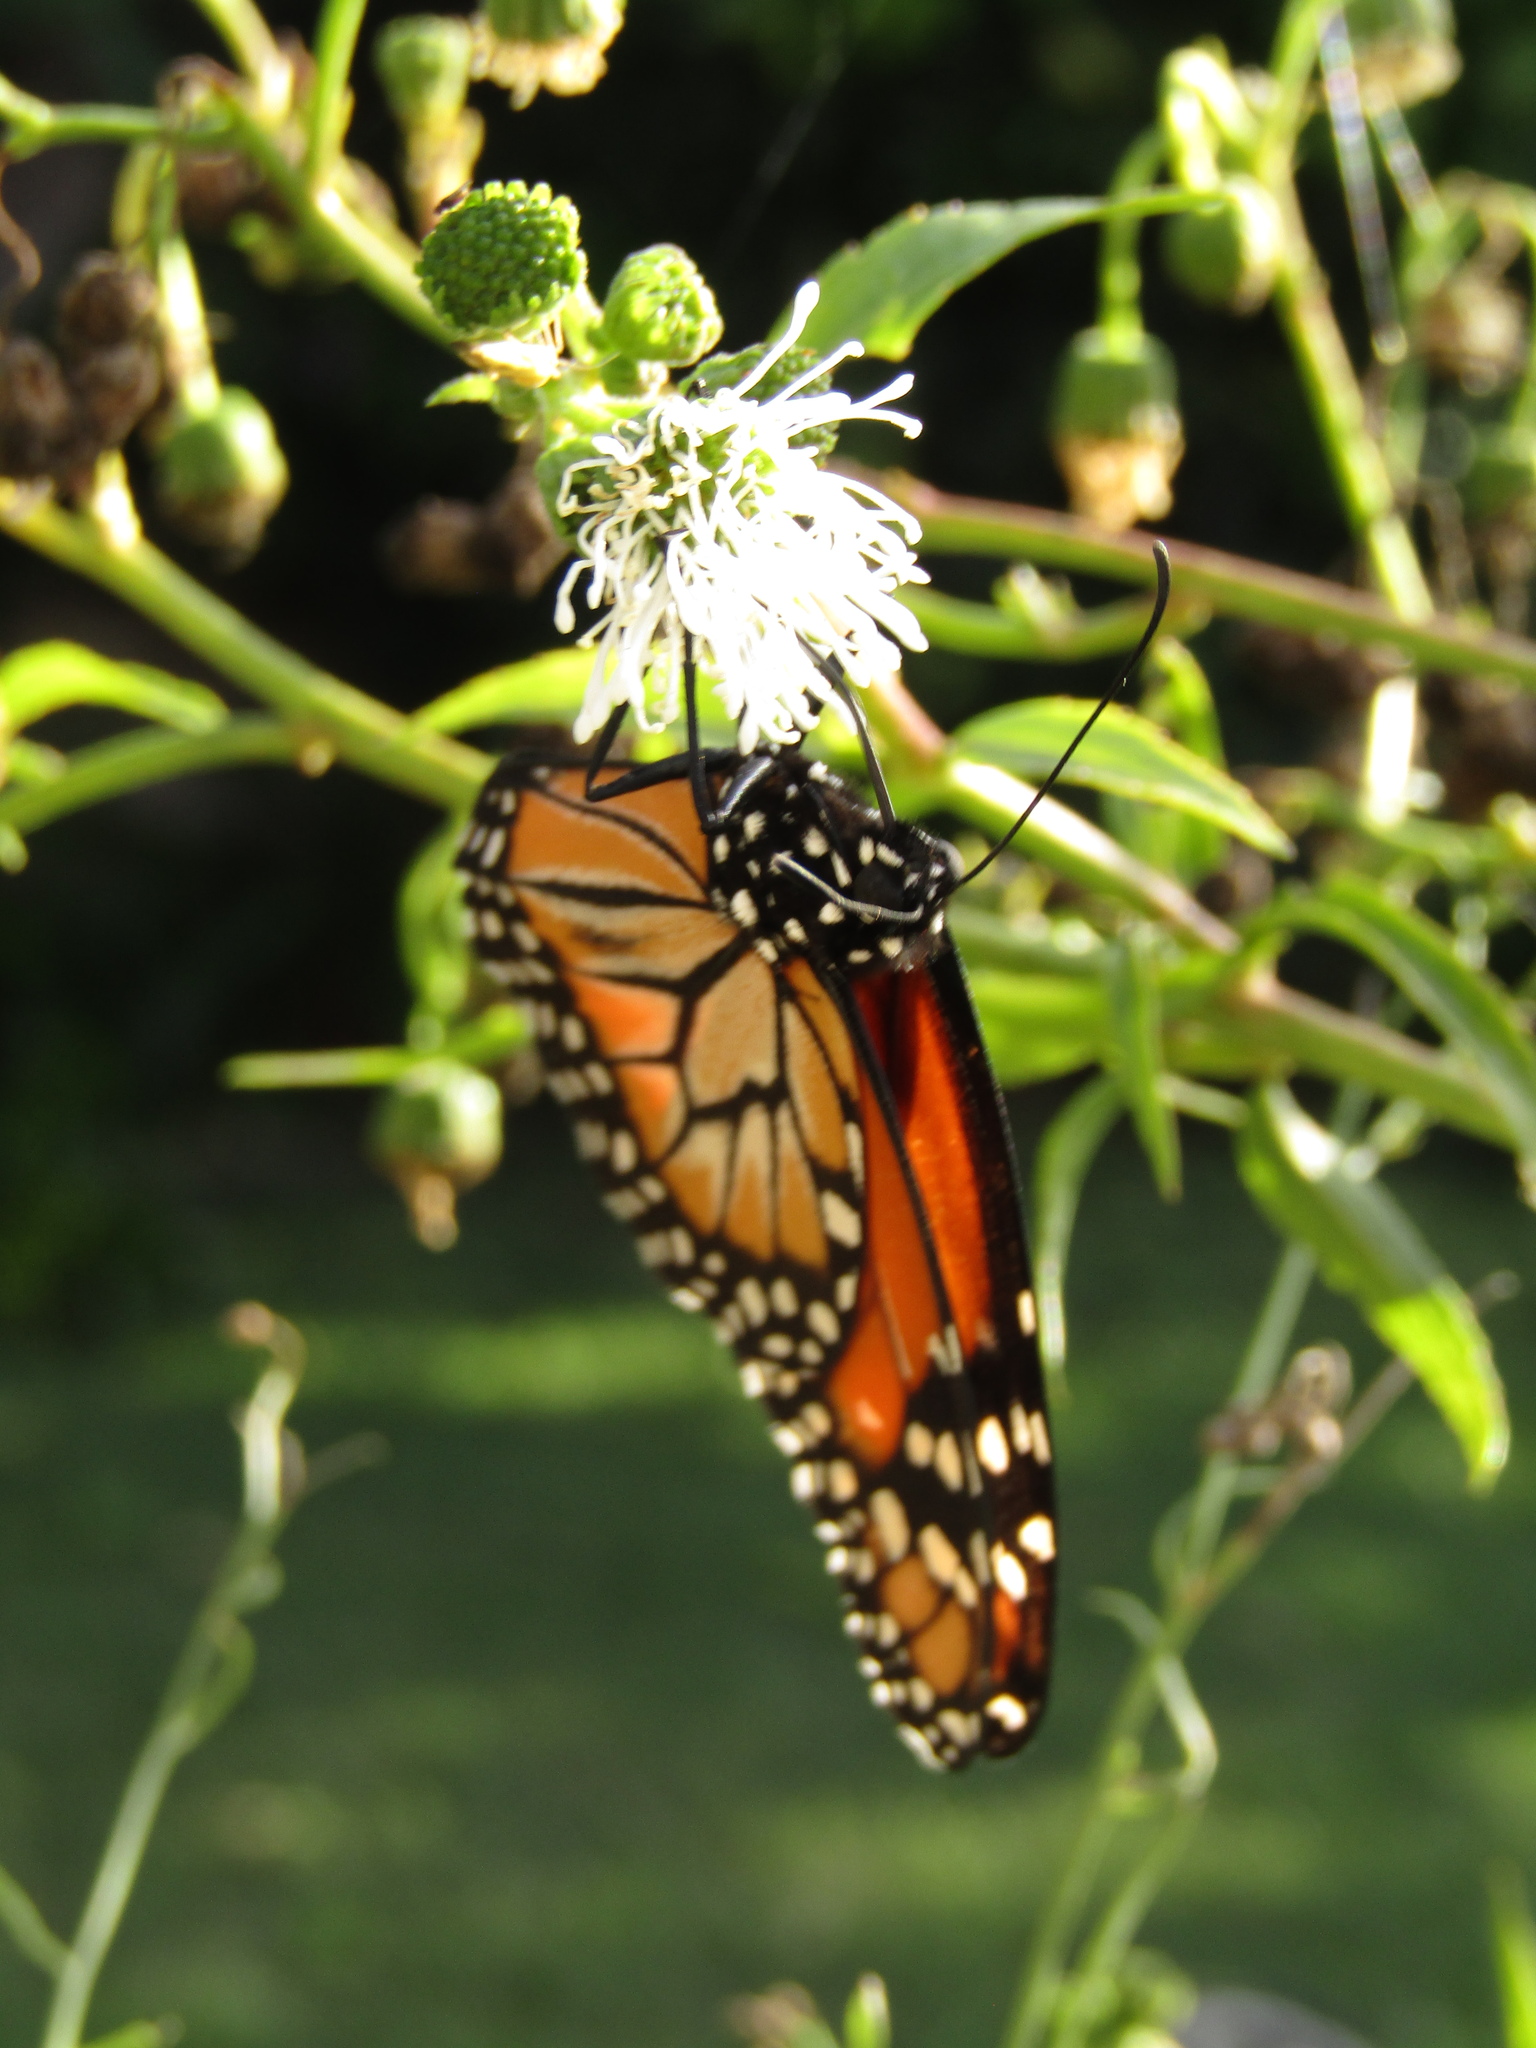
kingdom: Animalia
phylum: Arthropoda
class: Insecta
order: Lepidoptera
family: Nymphalidae
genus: Danaus
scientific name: Danaus erippus
